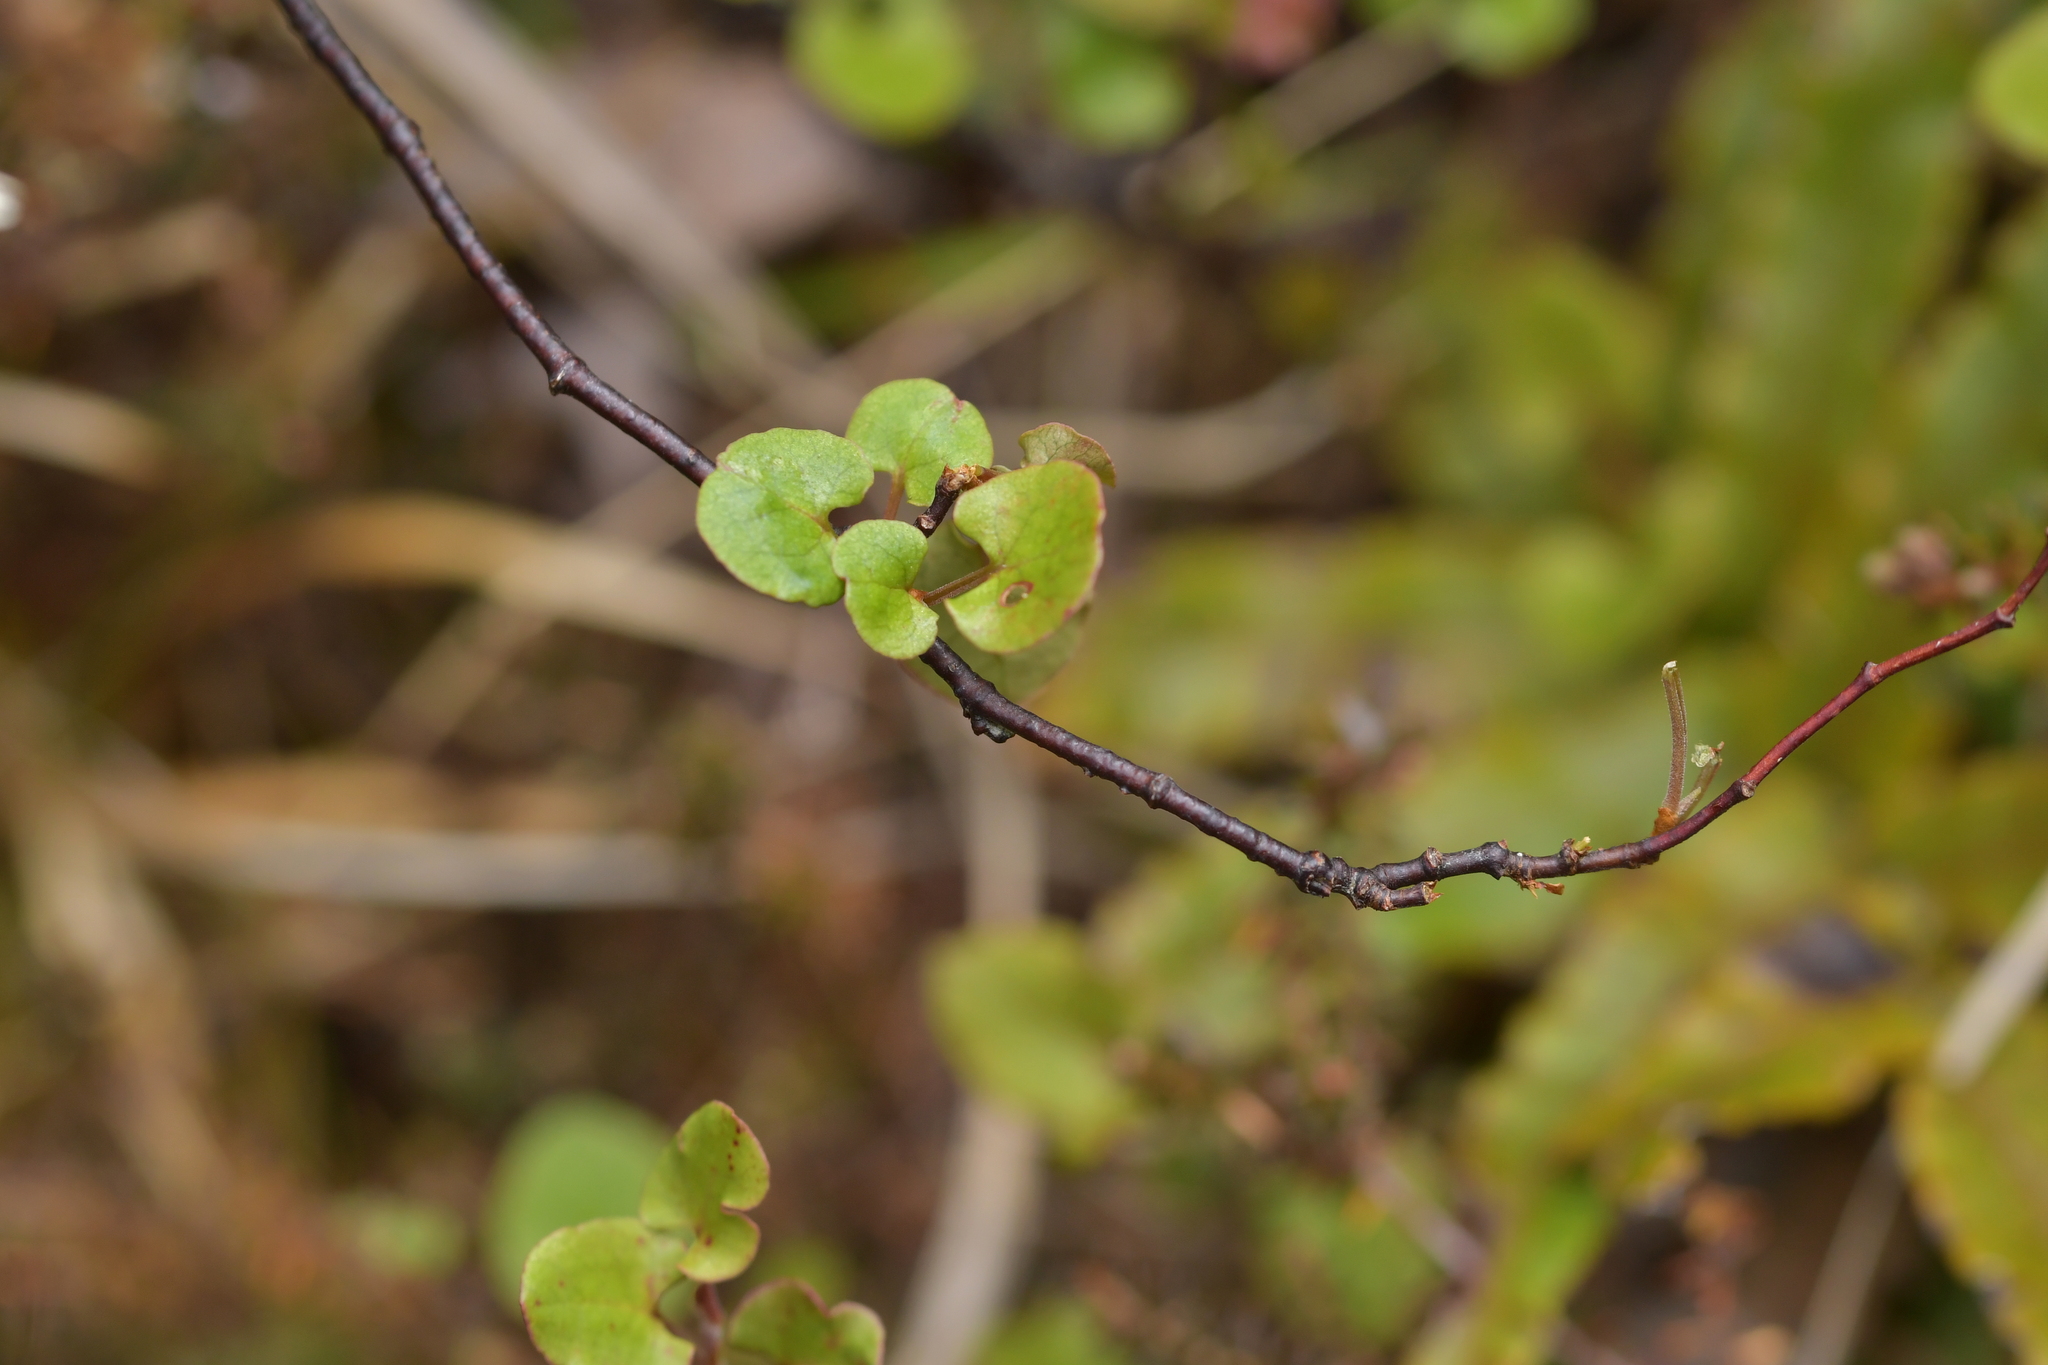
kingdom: Plantae
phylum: Tracheophyta
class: Magnoliopsida
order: Caryophyllales
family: Polygonaceae
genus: Muehlenbeckia
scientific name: Muehlenbeckia australis
